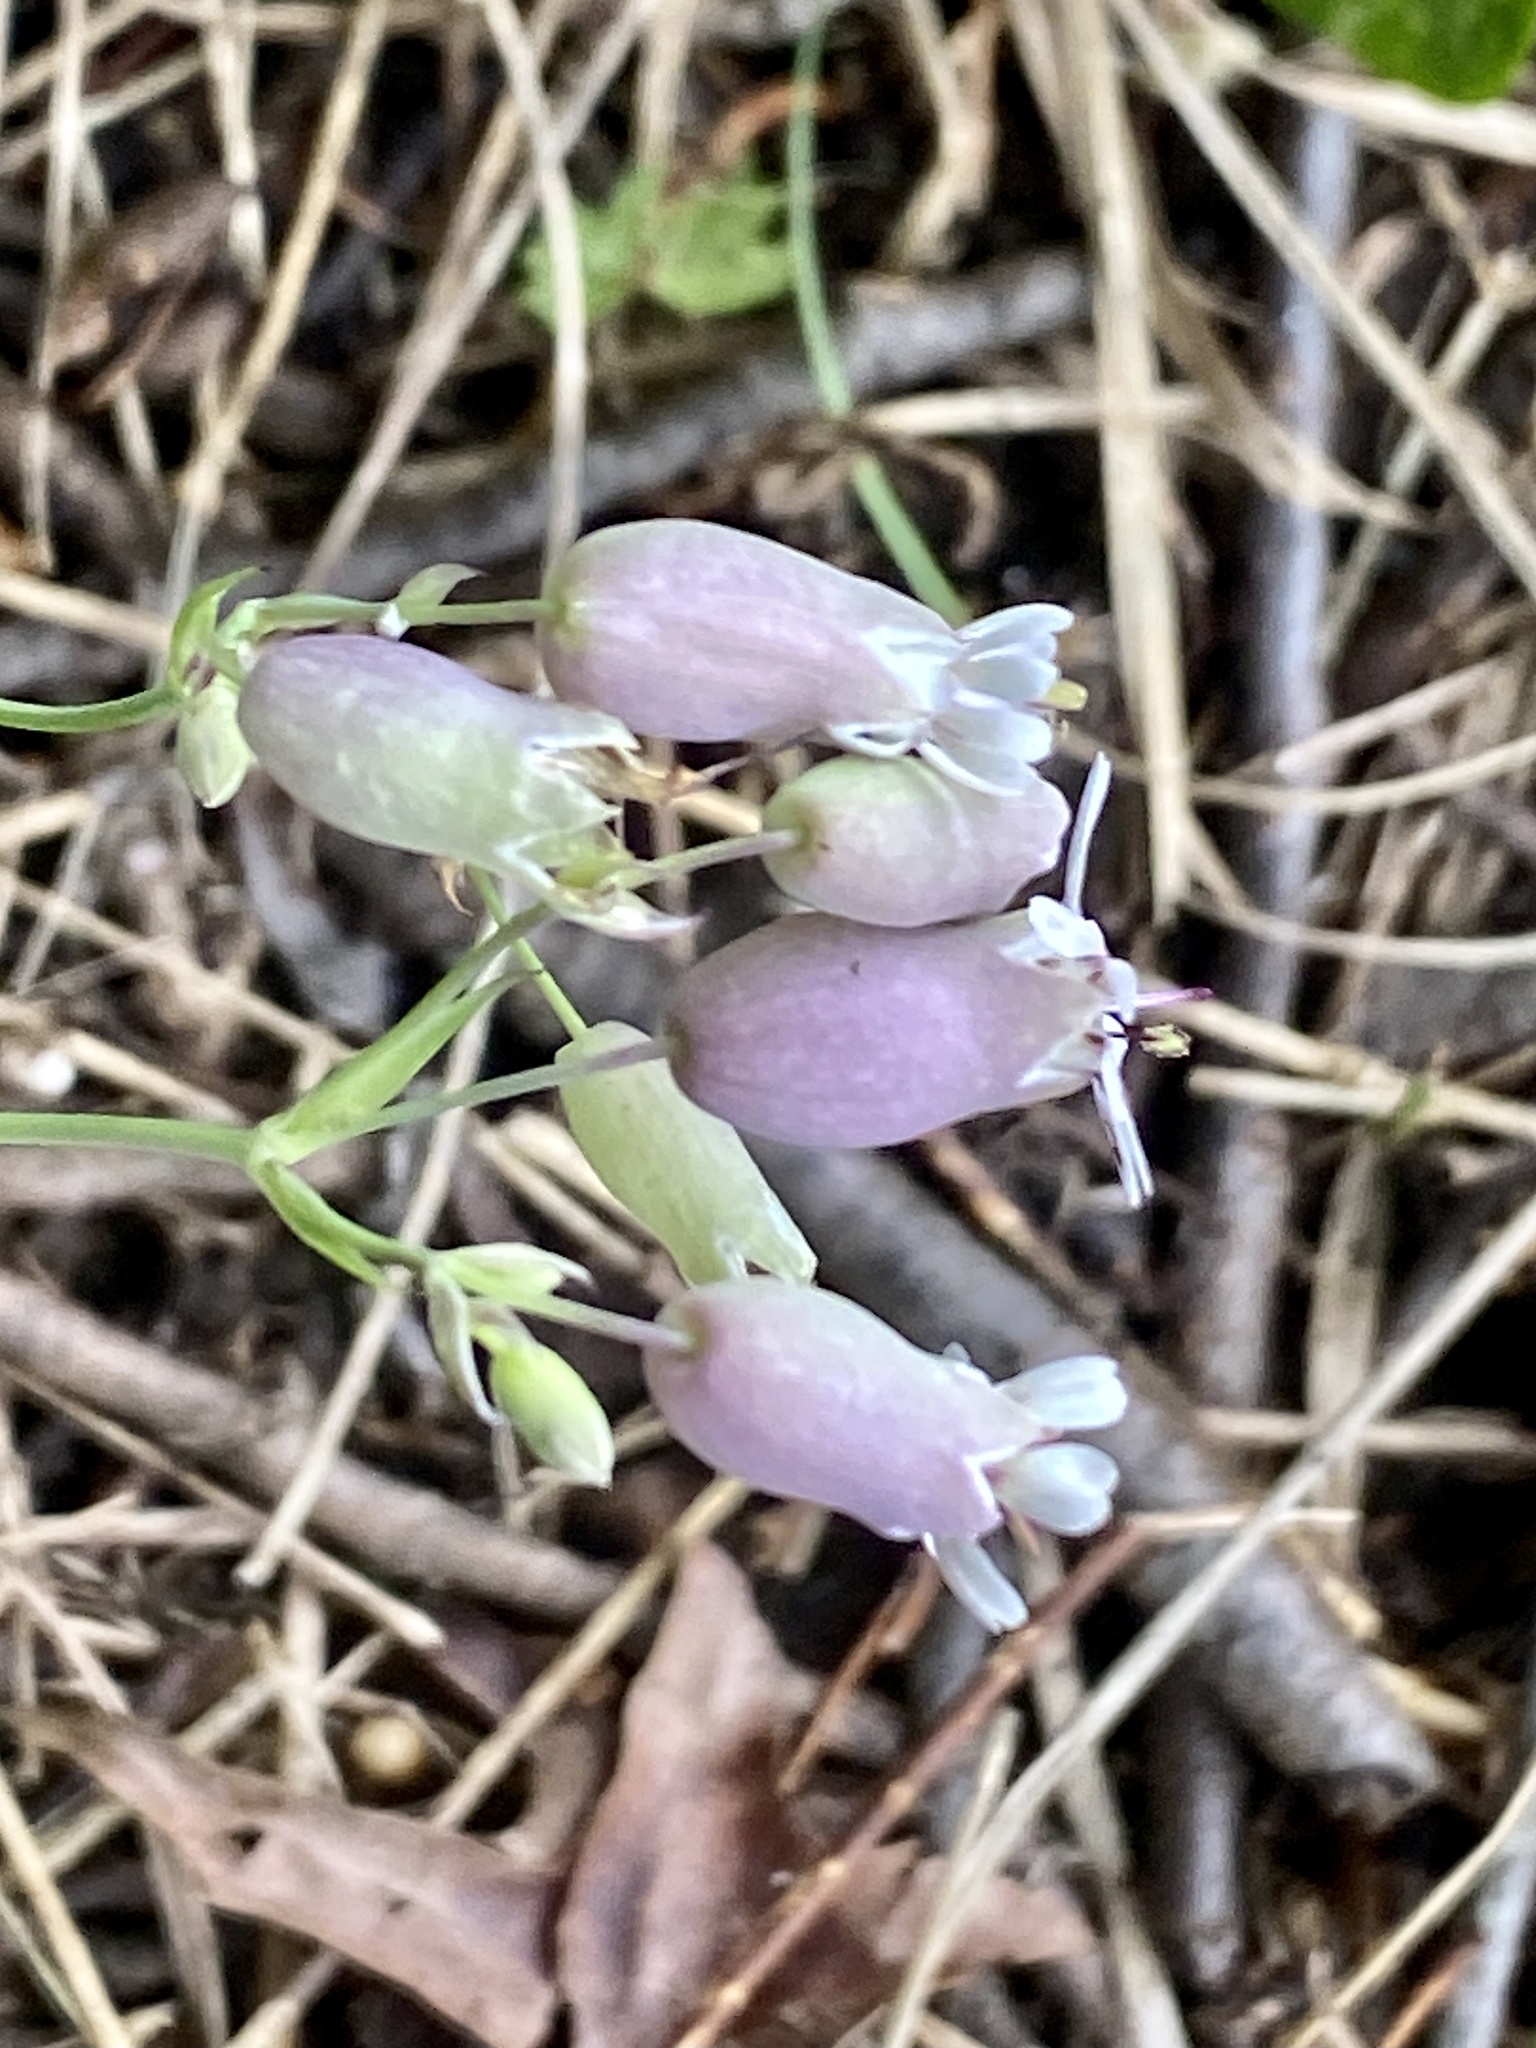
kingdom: Plantae
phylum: Tracheophyta
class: Magnoliopsida
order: Caryophyllales
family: Caryophyllaceae
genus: Silene
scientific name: Silene vulgaris
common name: Bladder campion
